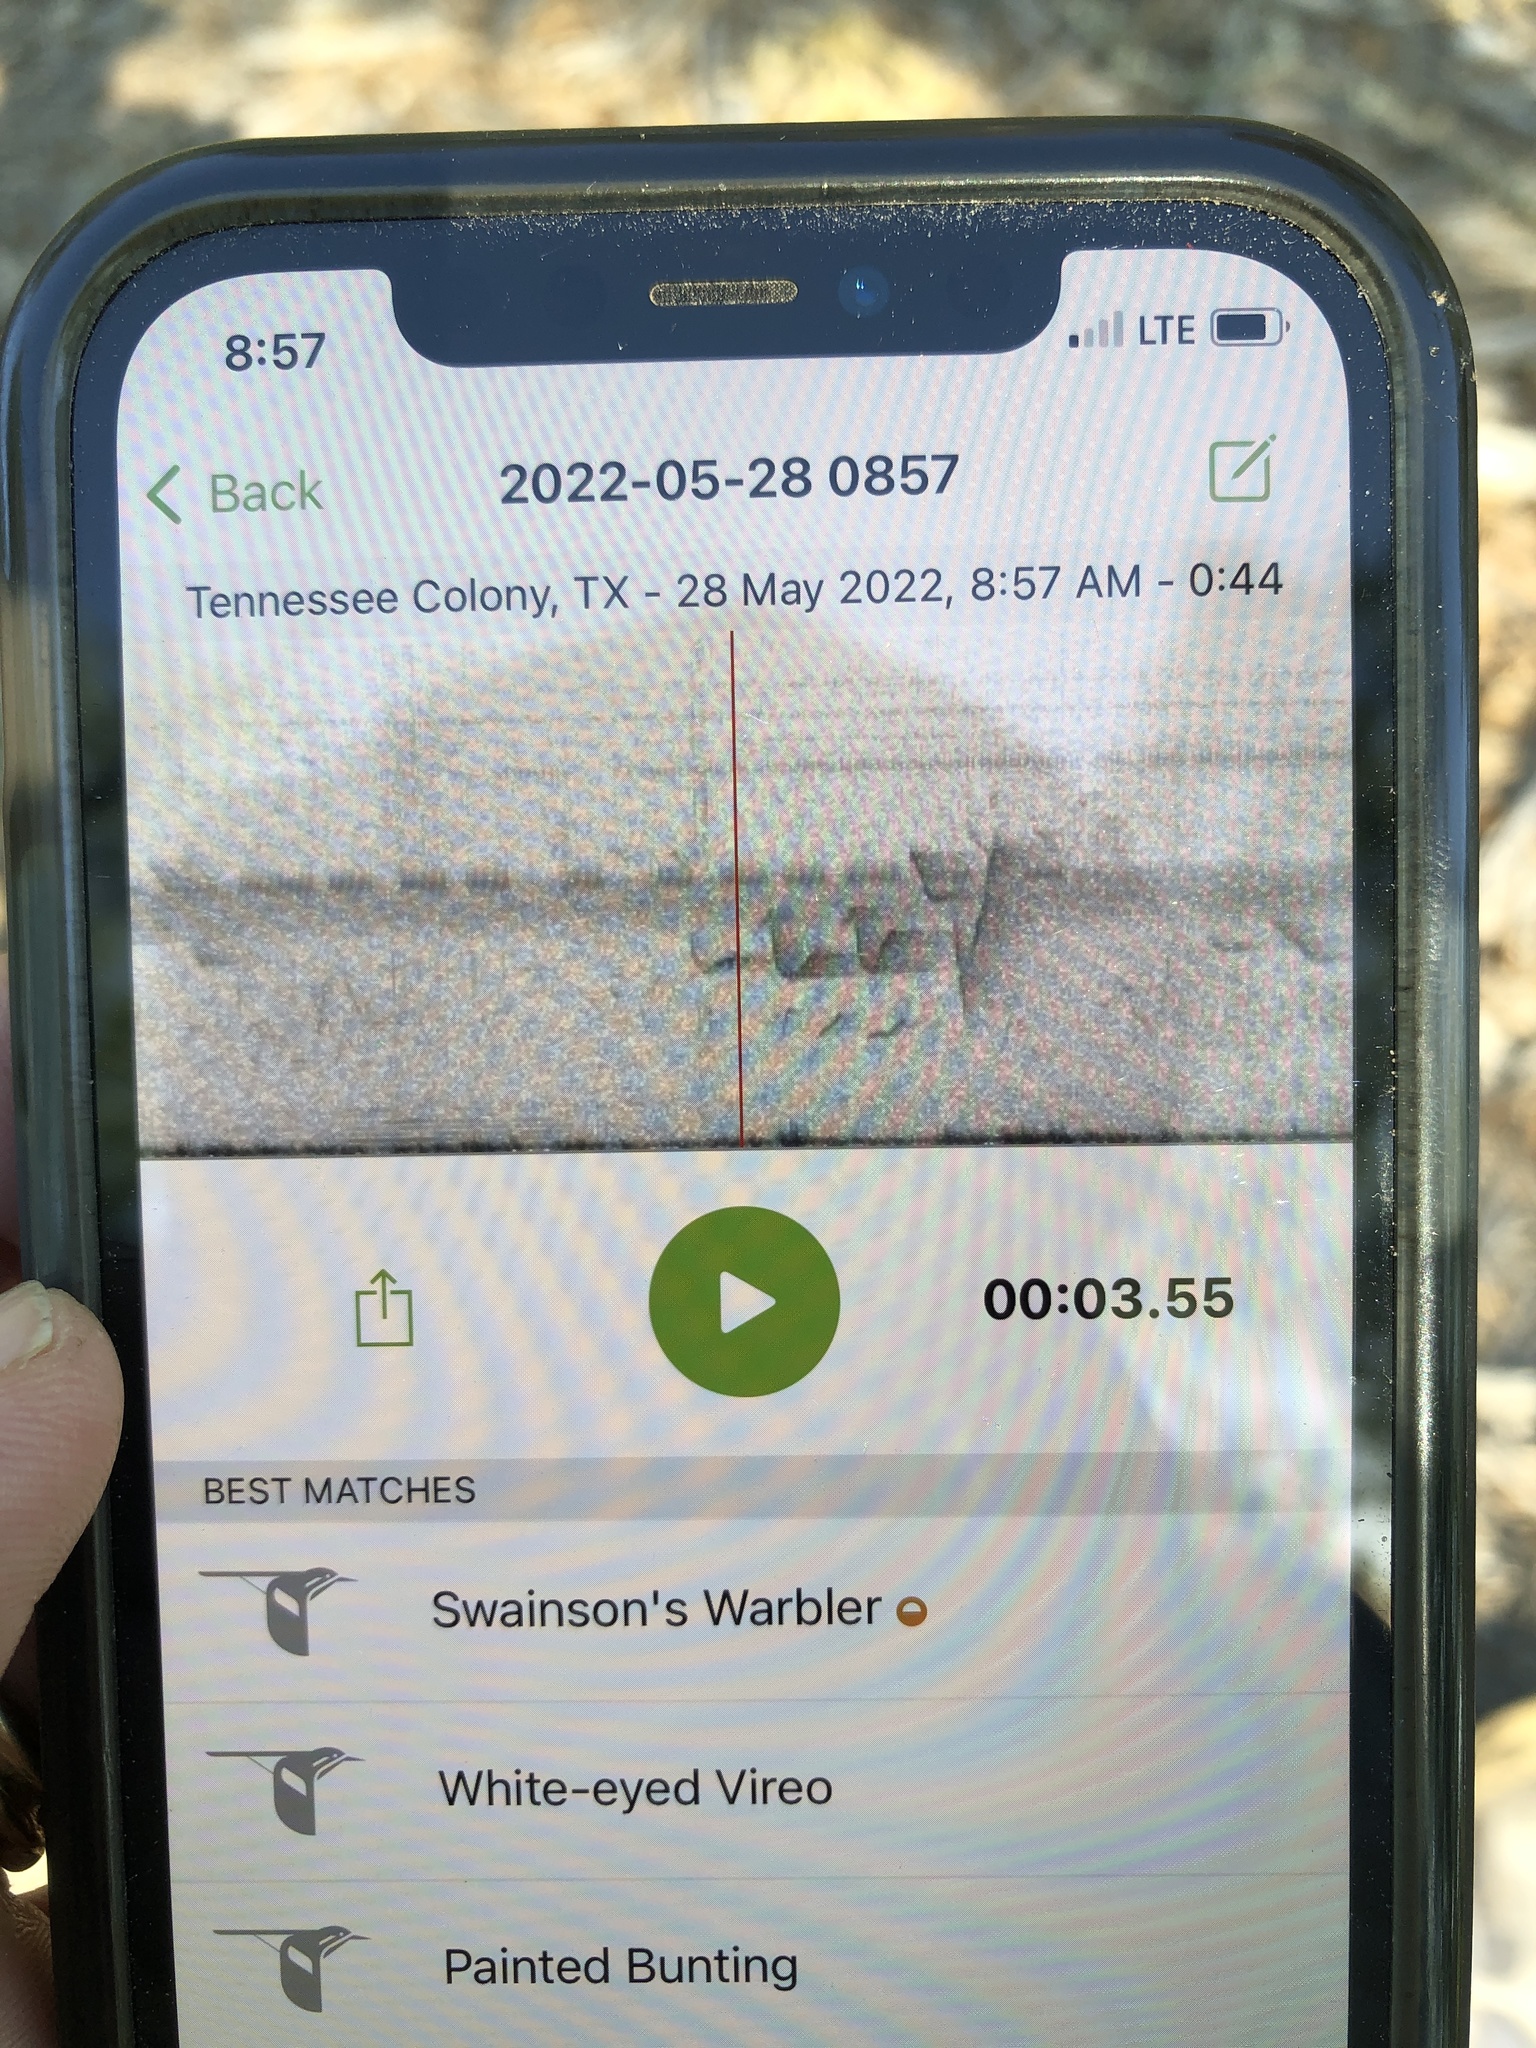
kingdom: Animalia
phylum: Chordata
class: Aves
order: Passeriformes
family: Parulidae
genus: Limnothlypis
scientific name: Limnothlypis swainsonii
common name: Swainson's warbler
